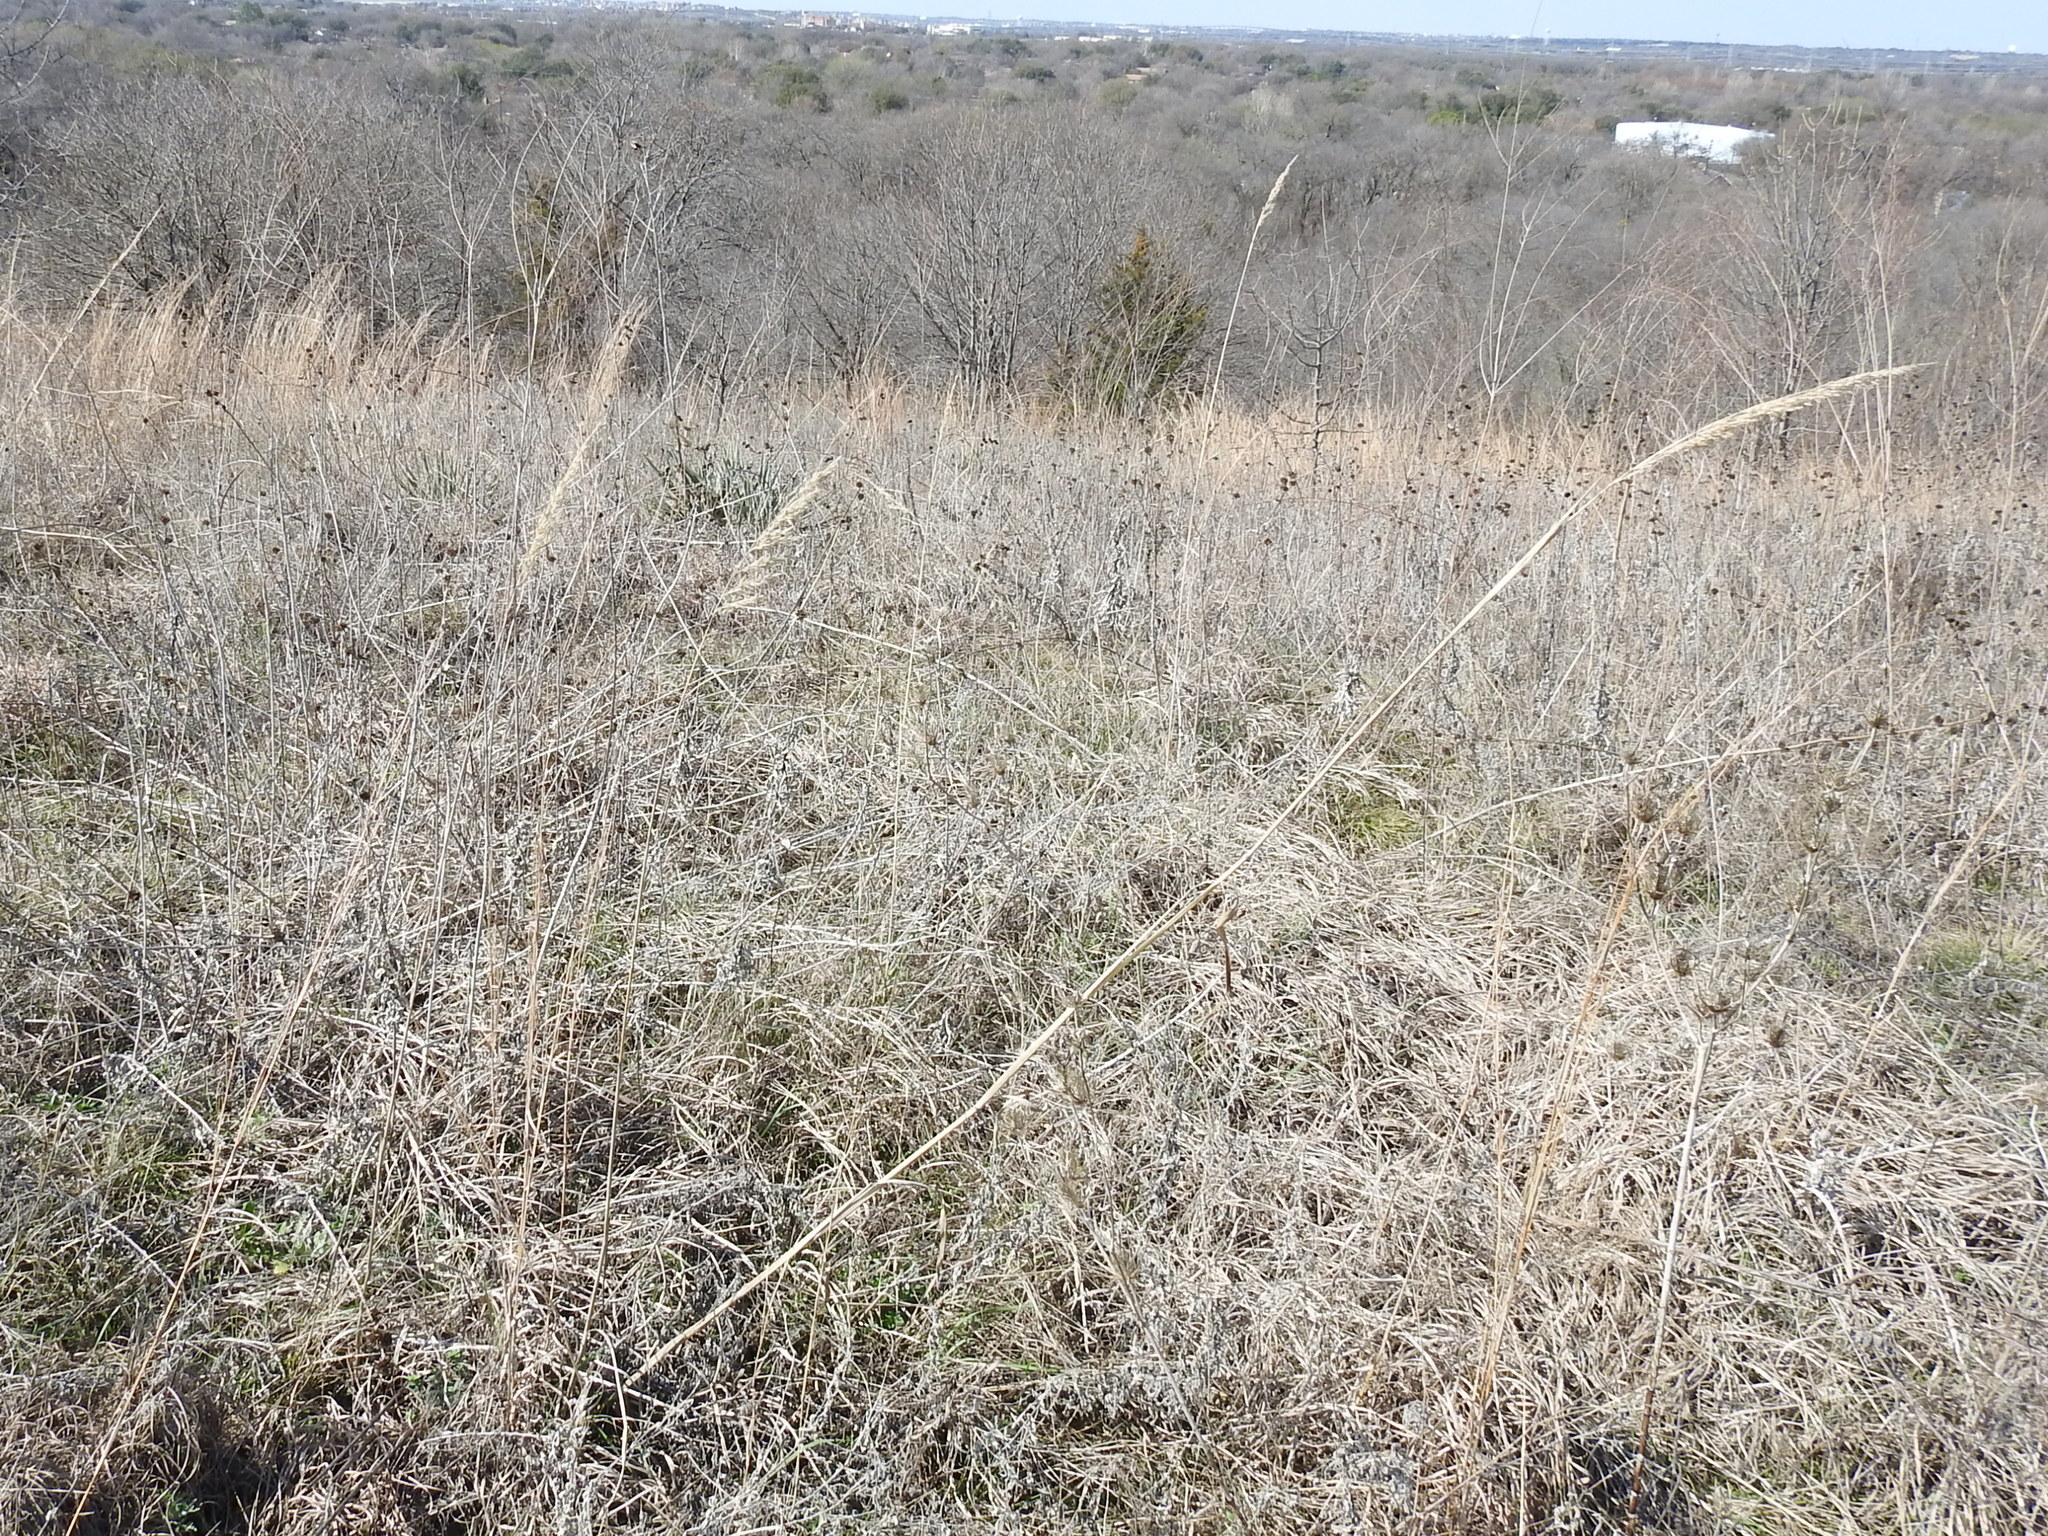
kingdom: Plantae
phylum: Tracheophyta
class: Liliopsida
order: Poales
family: Poaceae
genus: Sorghastrum
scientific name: Sorghastrum nutans
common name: Indian grass
